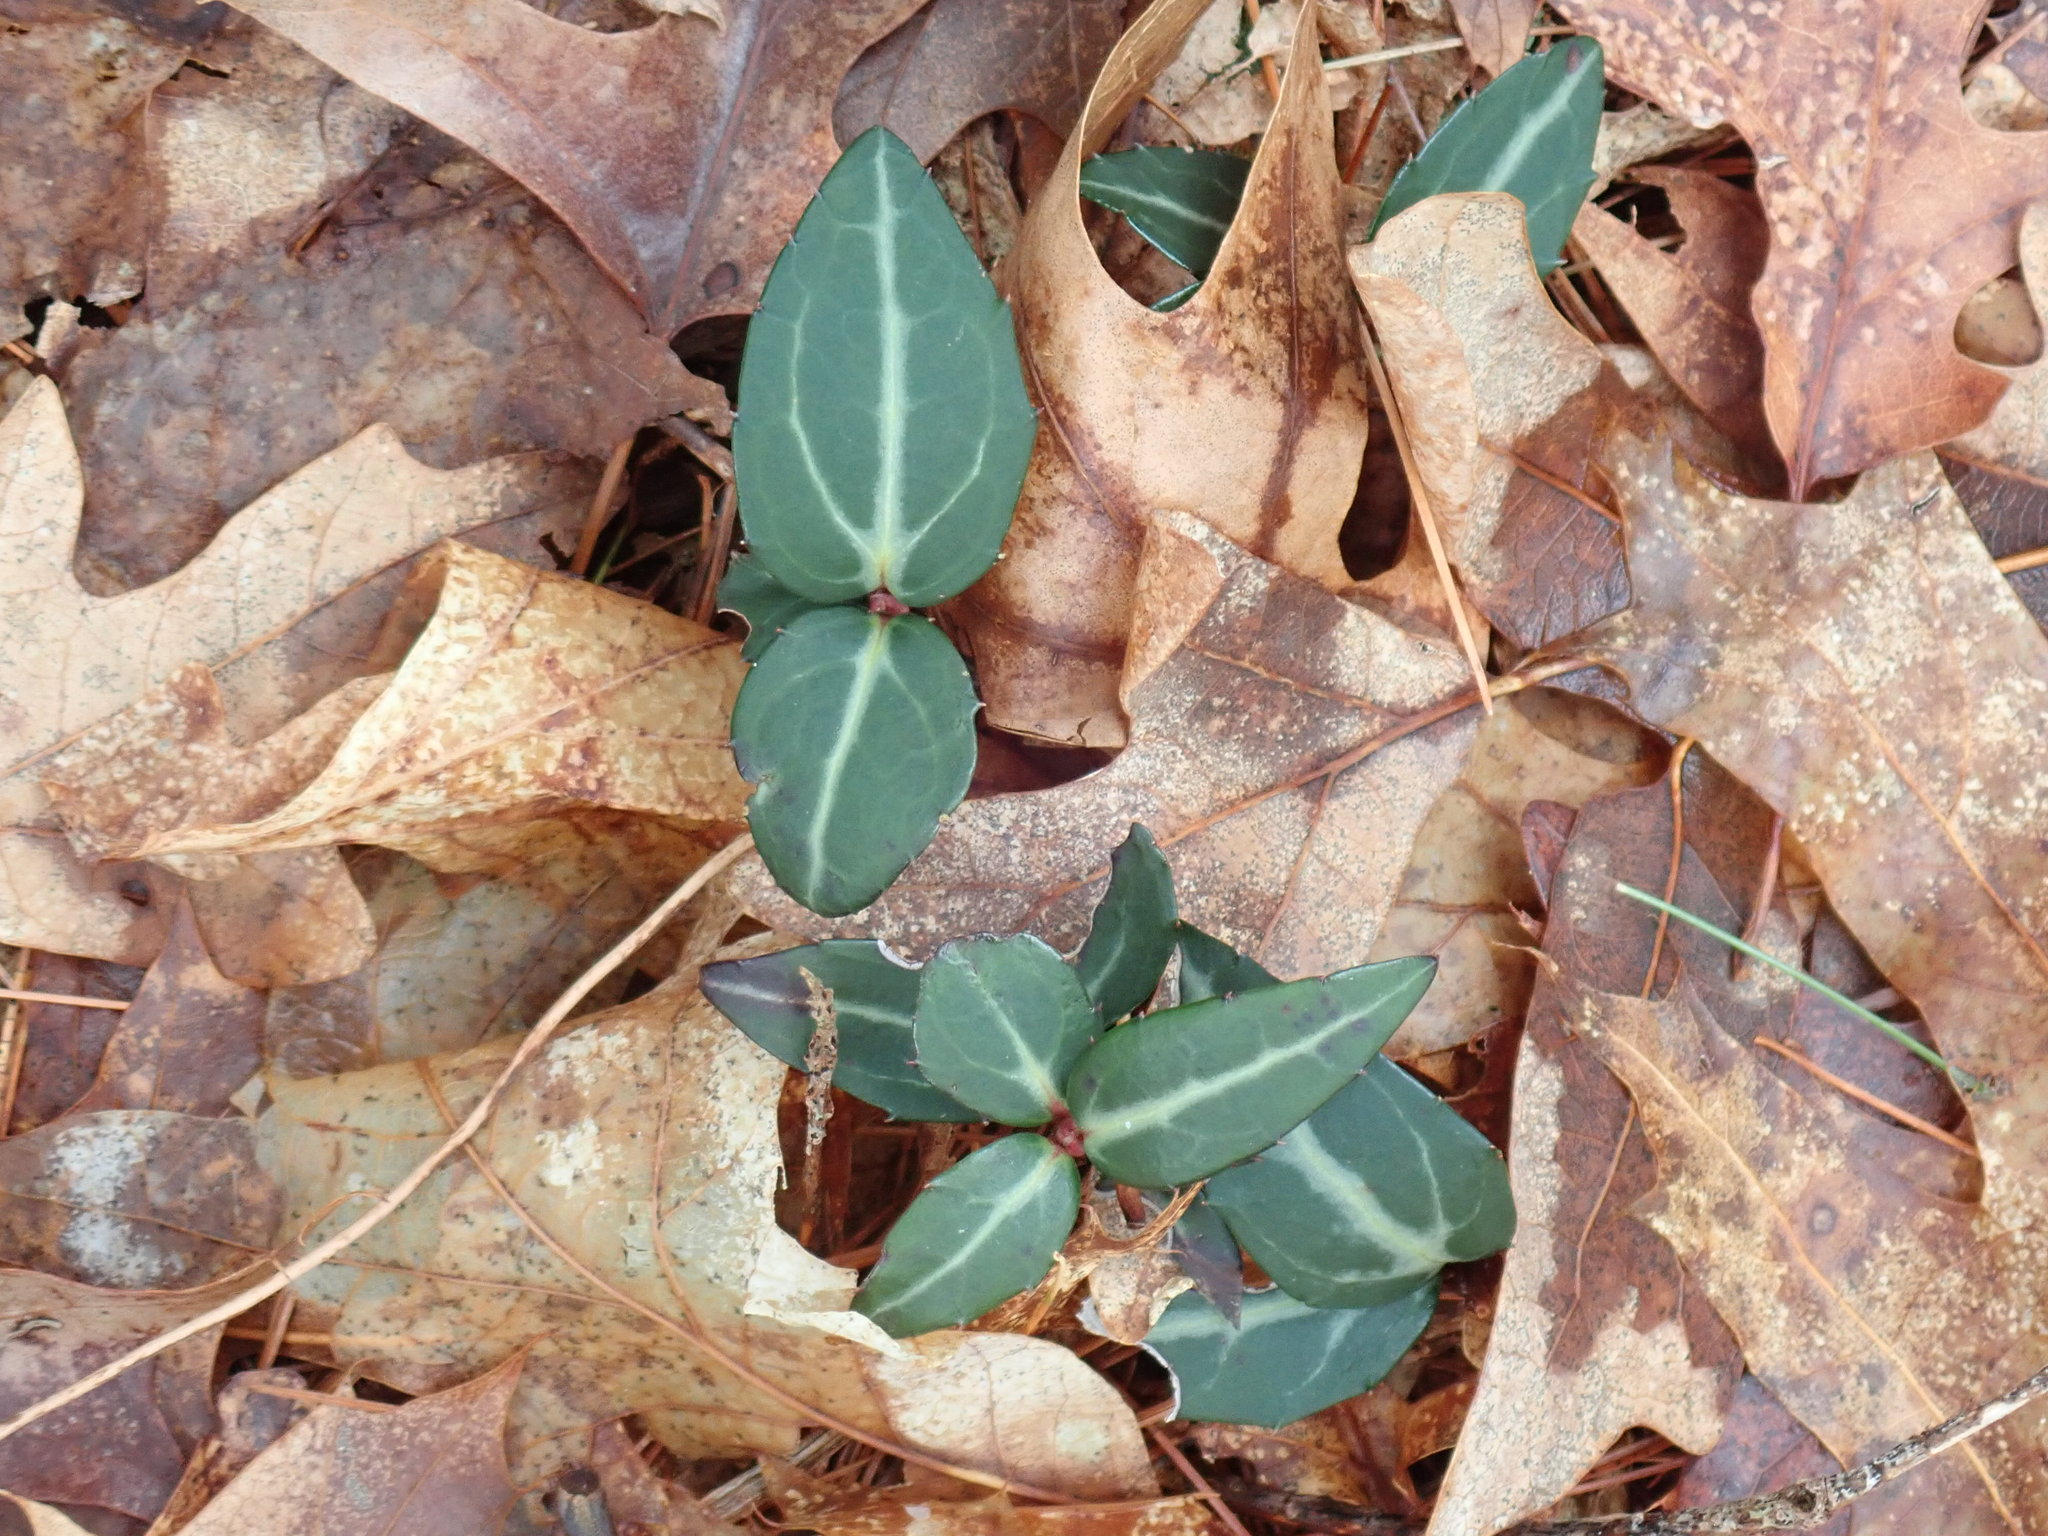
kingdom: Plantae
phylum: Tracheophyta
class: Magnoliopsida
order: Ericales
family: Ericaceae
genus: Chimaphila
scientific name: Chimaphila maculata
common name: Spotted pipsissewa
